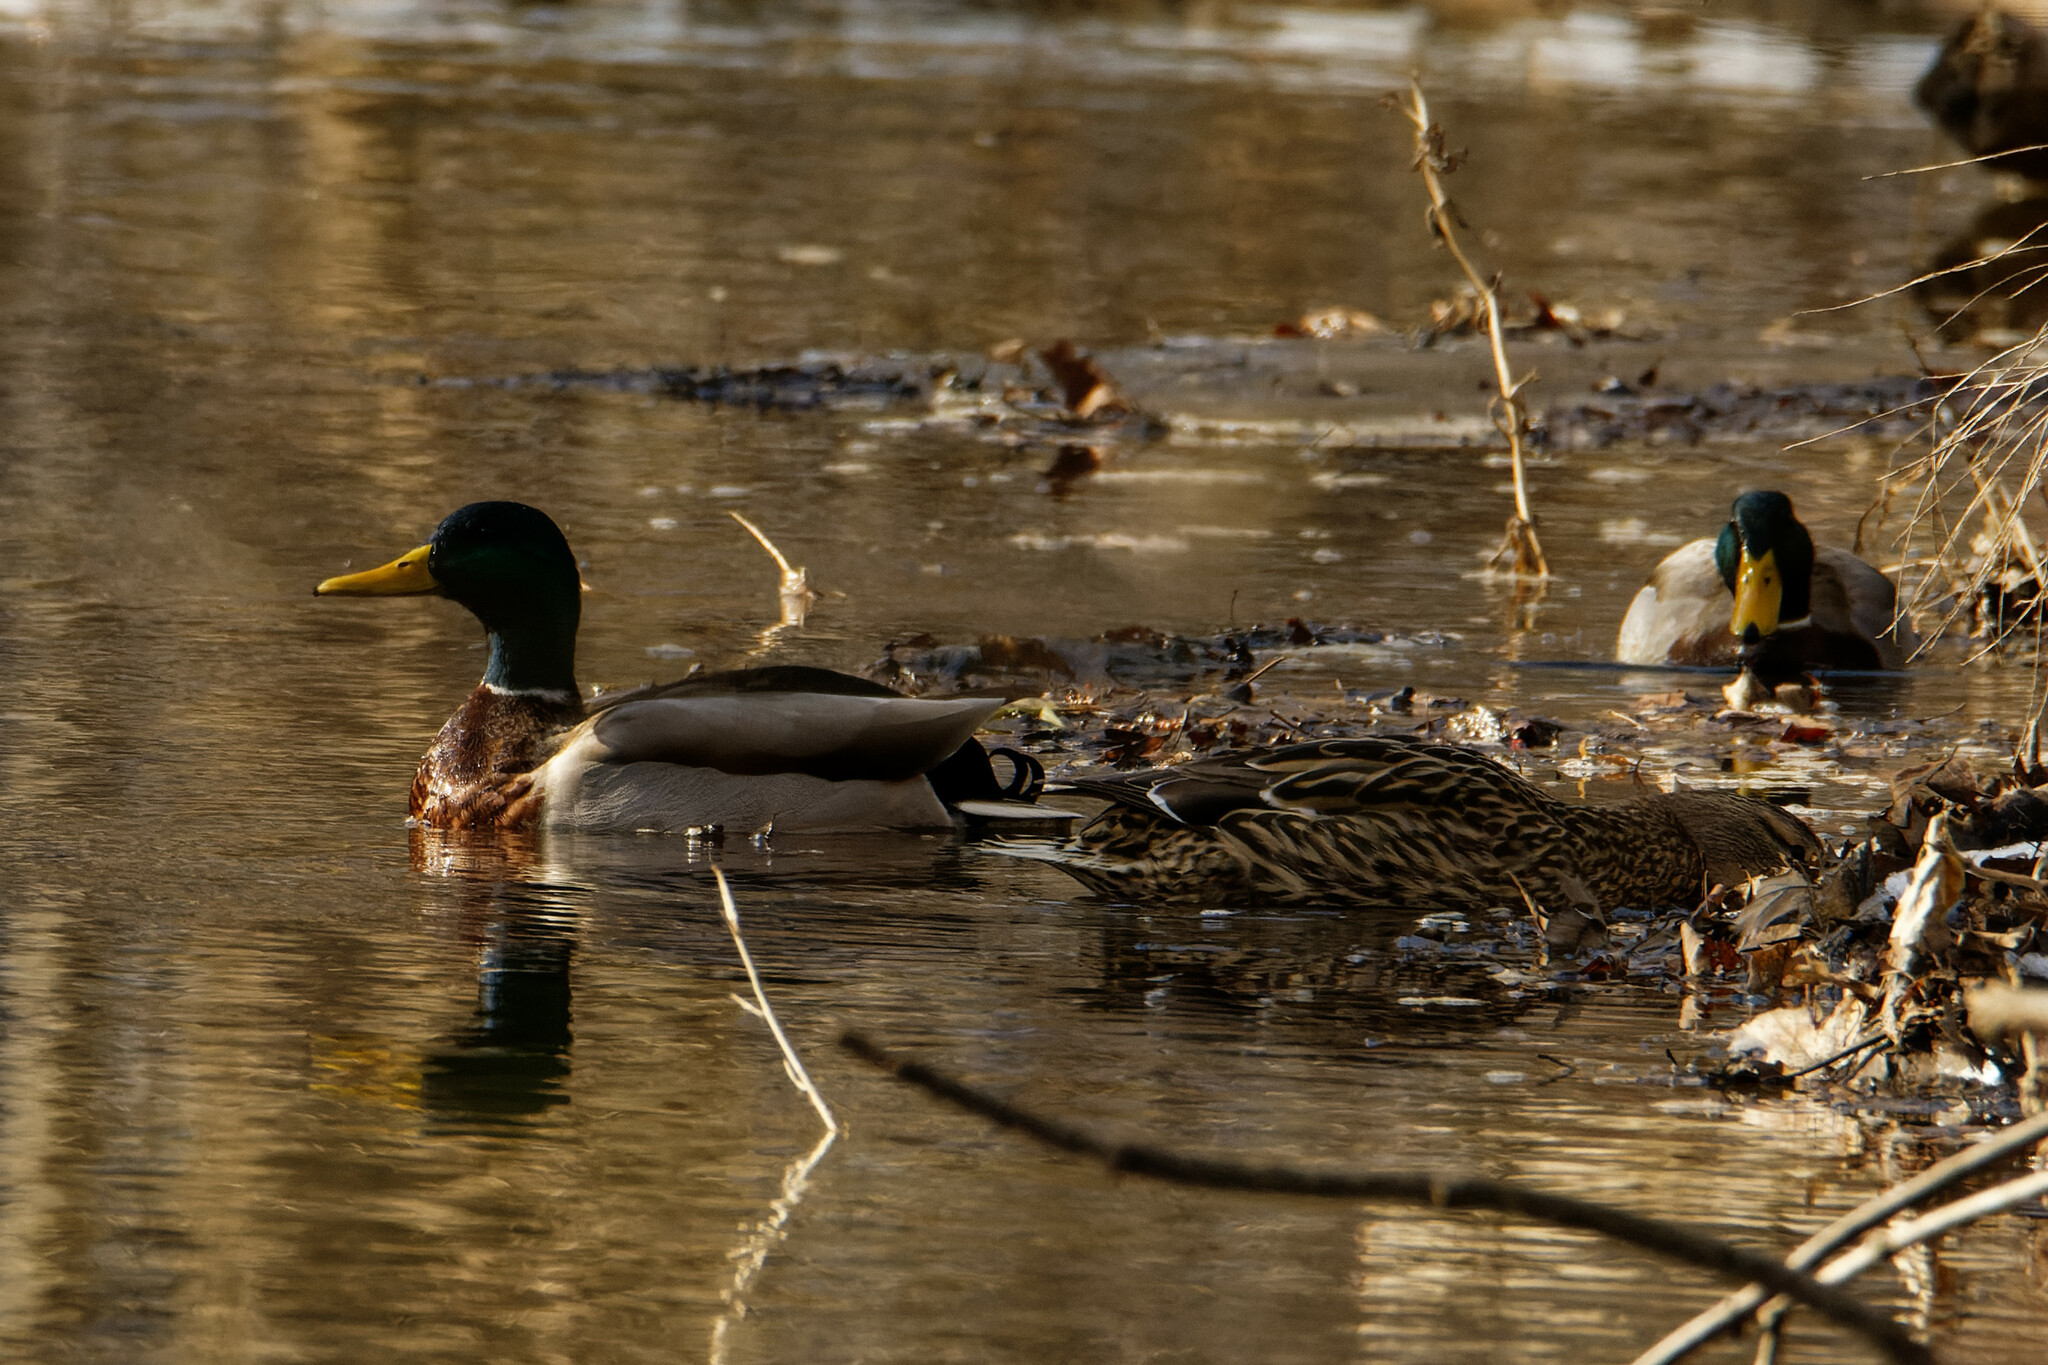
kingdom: Animalia
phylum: Chordata
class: Aves
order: Anseriformes
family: Anatidae
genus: Anas
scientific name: Anas platyrhynchos
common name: Mallard
